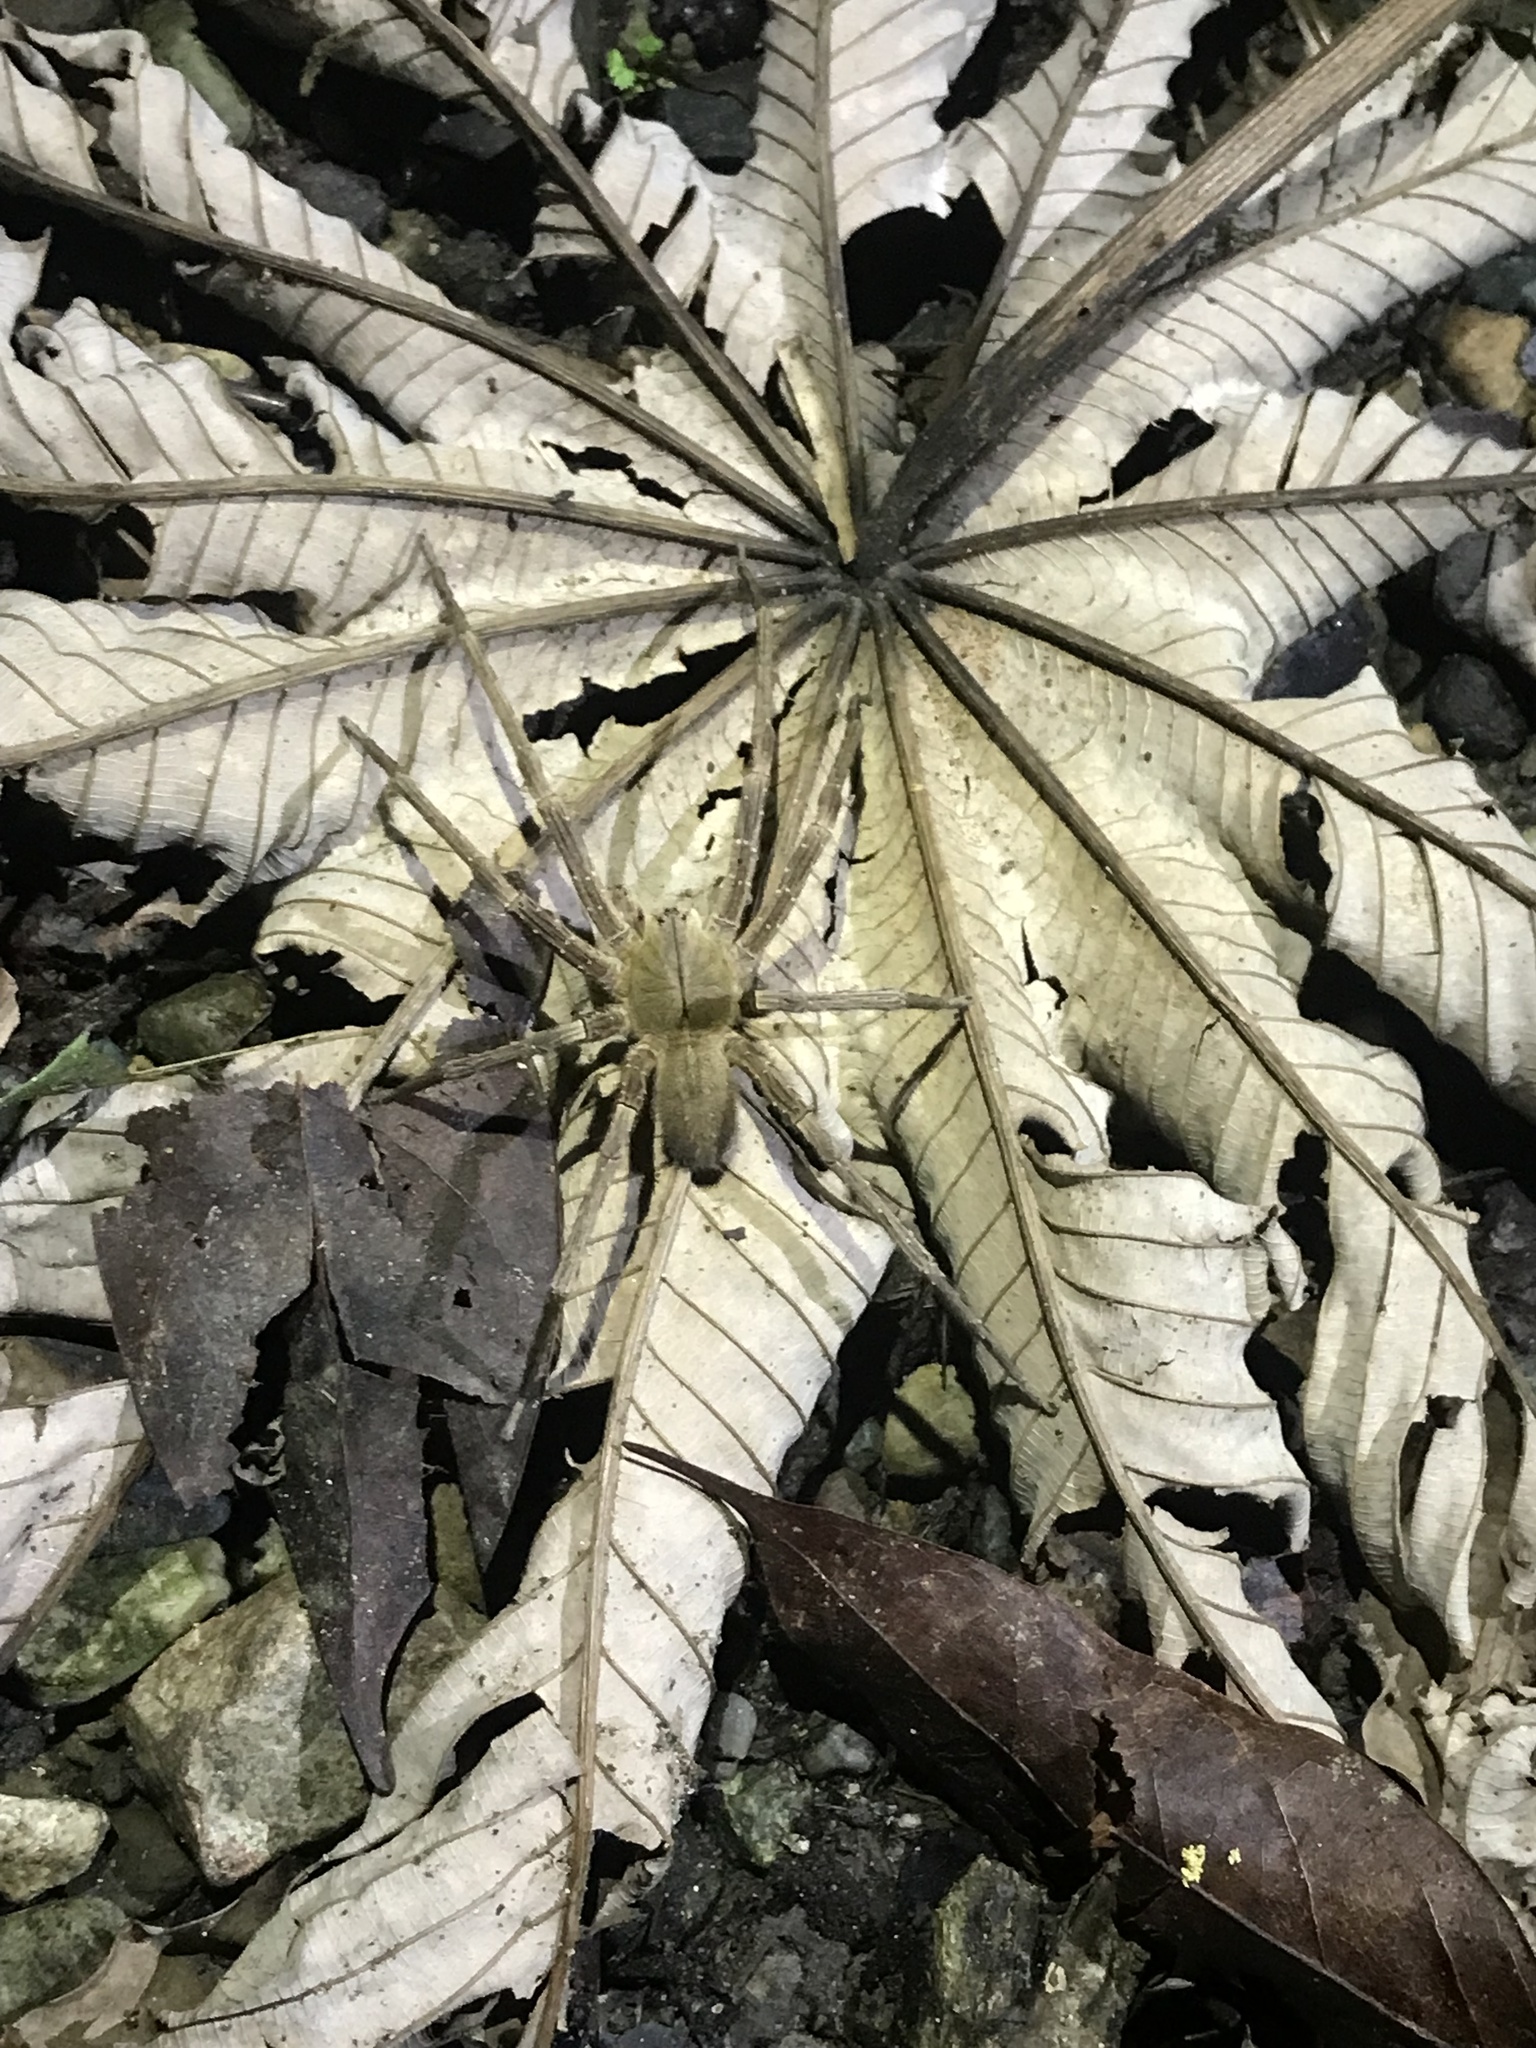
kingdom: Animalia
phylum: Arthropoda
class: Arachnida
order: Araneae
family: Ctenidae
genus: Phoneutria
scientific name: Phoneutria depilata
